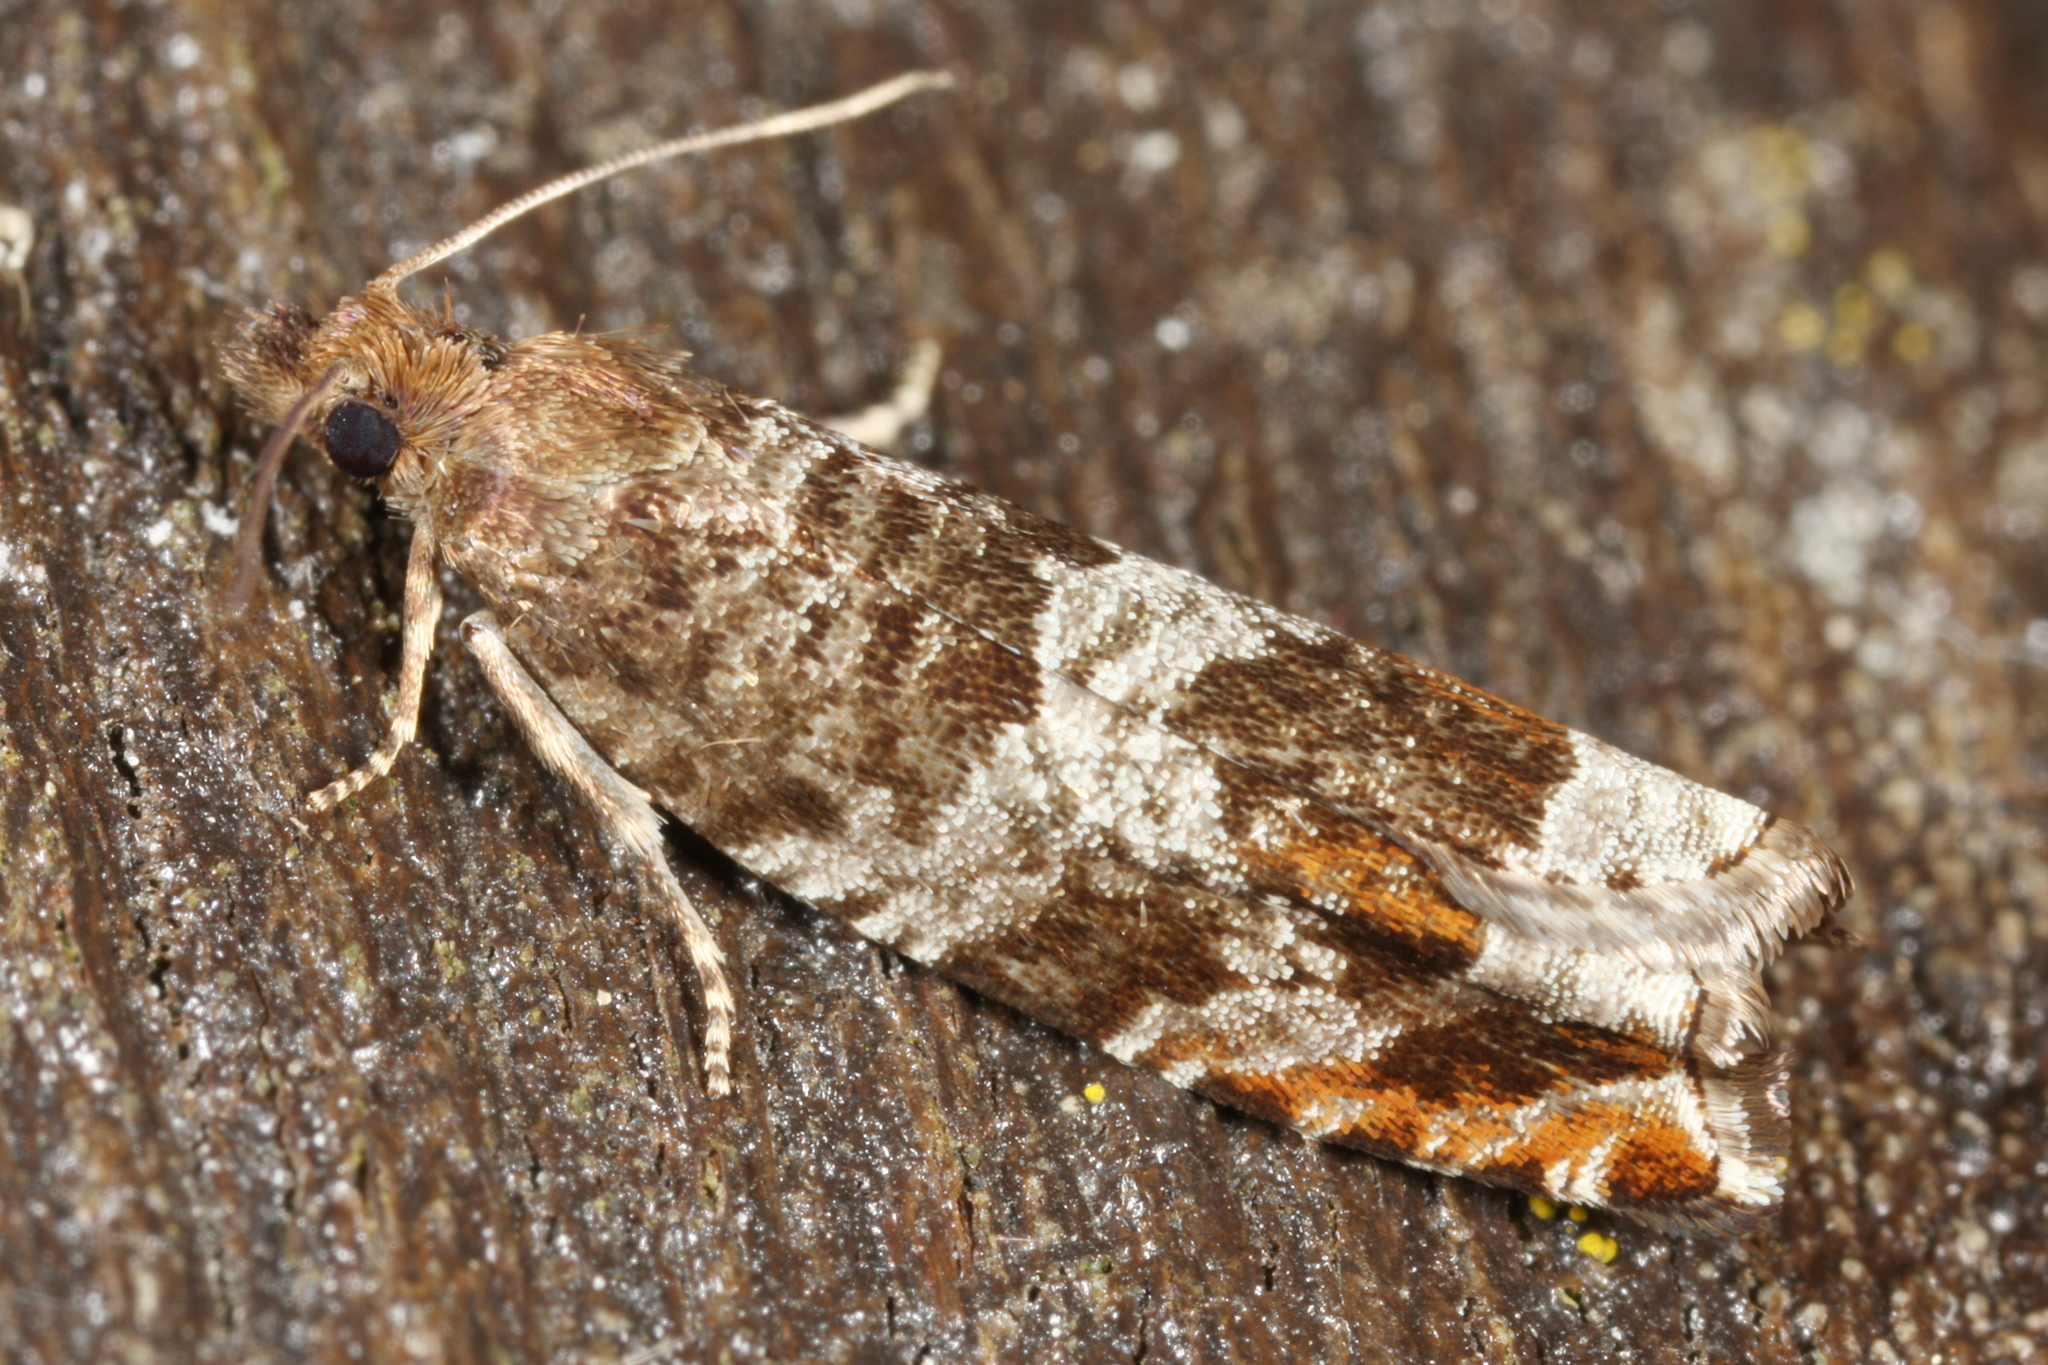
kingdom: Animalia
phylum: Arthropoda
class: Insecta
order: Lepidoptera
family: Tortricidae
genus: Ancylis
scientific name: Ancylis achatana
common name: Triangle-marked roller
